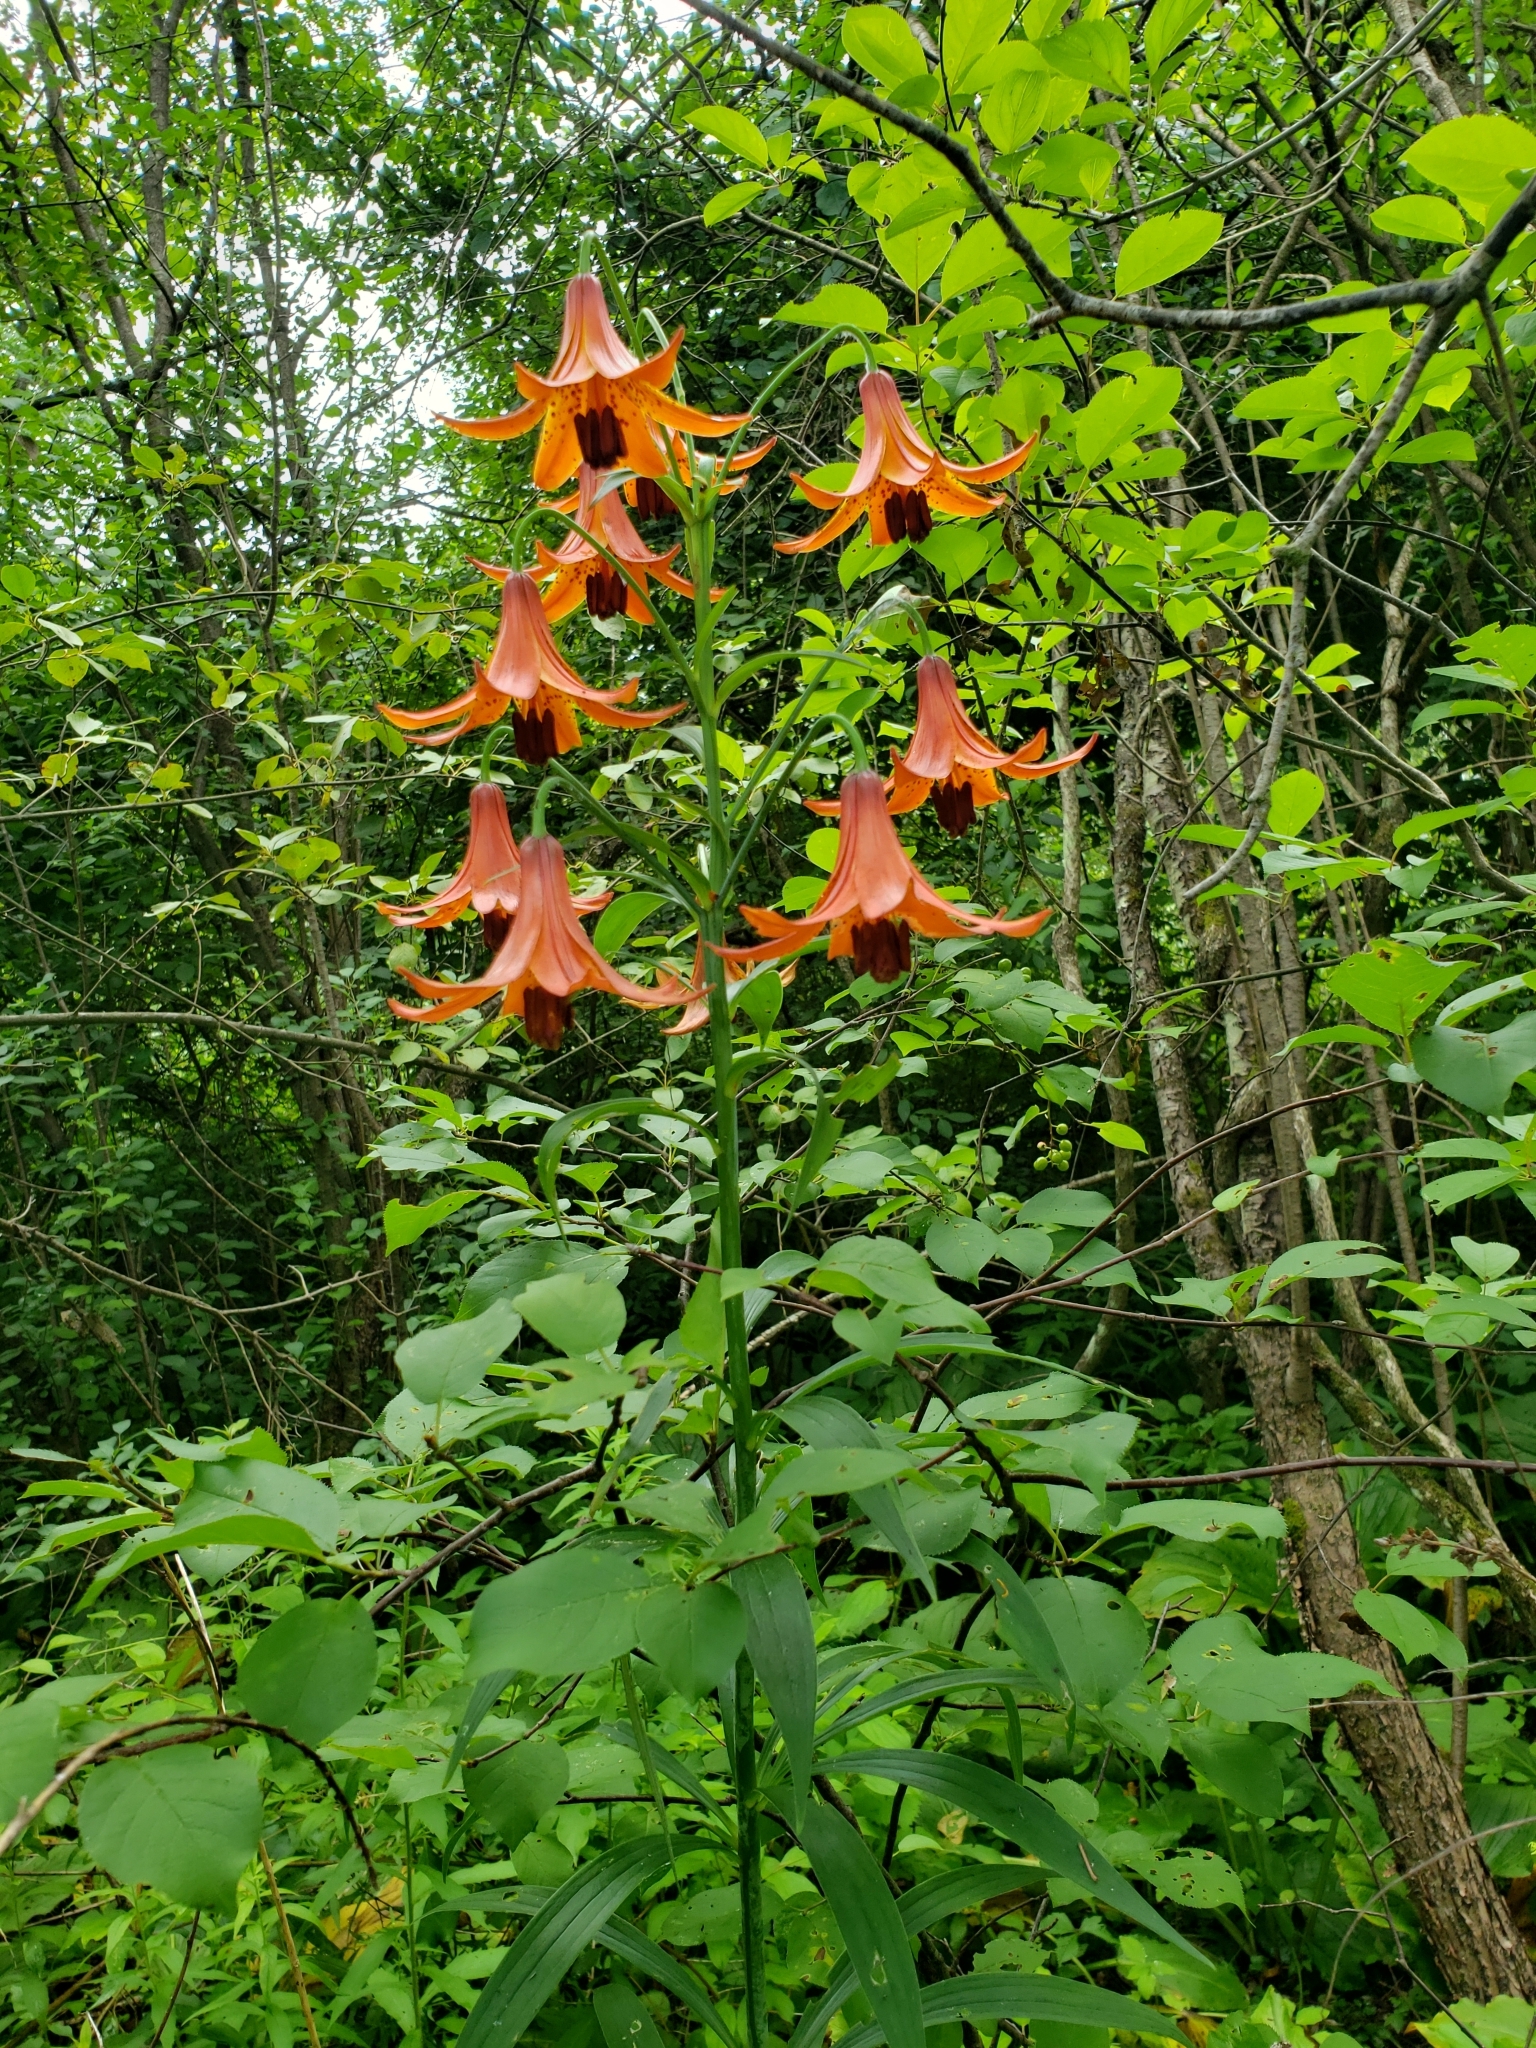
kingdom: Plantae
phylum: Tracheophyta
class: Liliopsida
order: Liliales
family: Liliaceae
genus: Lilium
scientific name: Lilium canadense
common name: Canada lily
